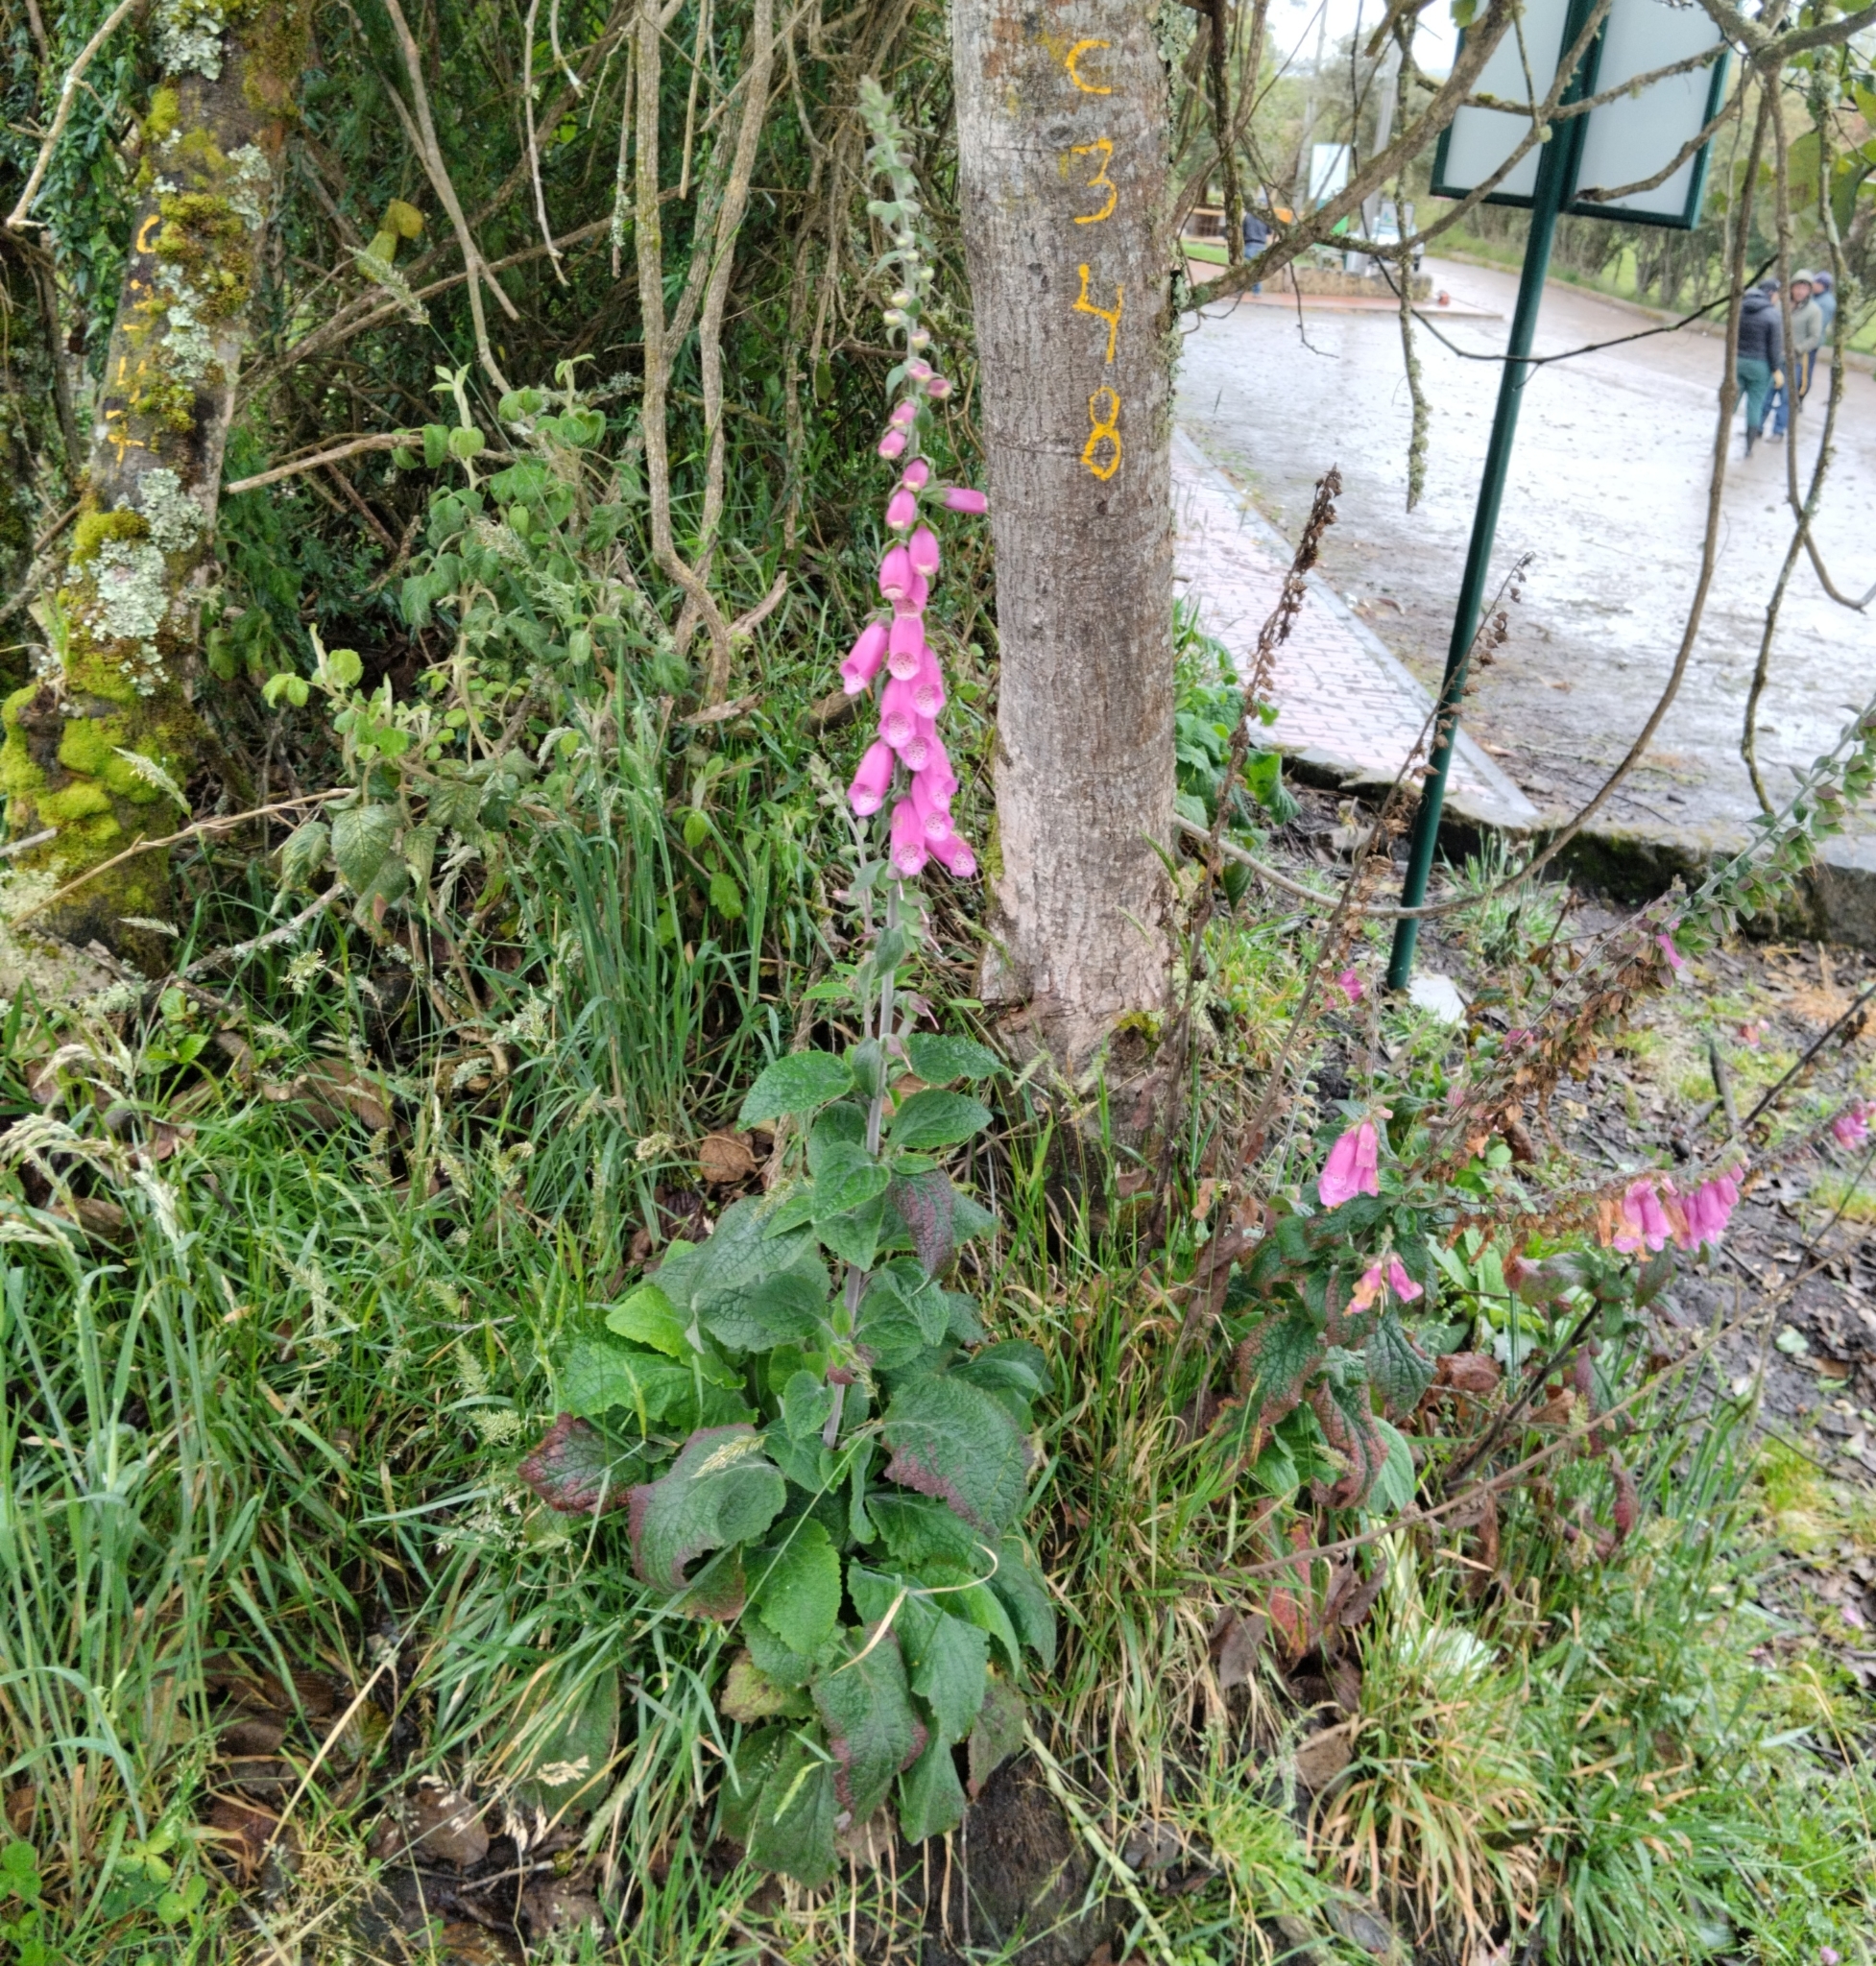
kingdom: Plantae
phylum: Tracheophyta
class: Magnoliopsida
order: Lamiales
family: Plantaginaceae
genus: Digitalis
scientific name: Digitalis purpurea
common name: Foxglove
